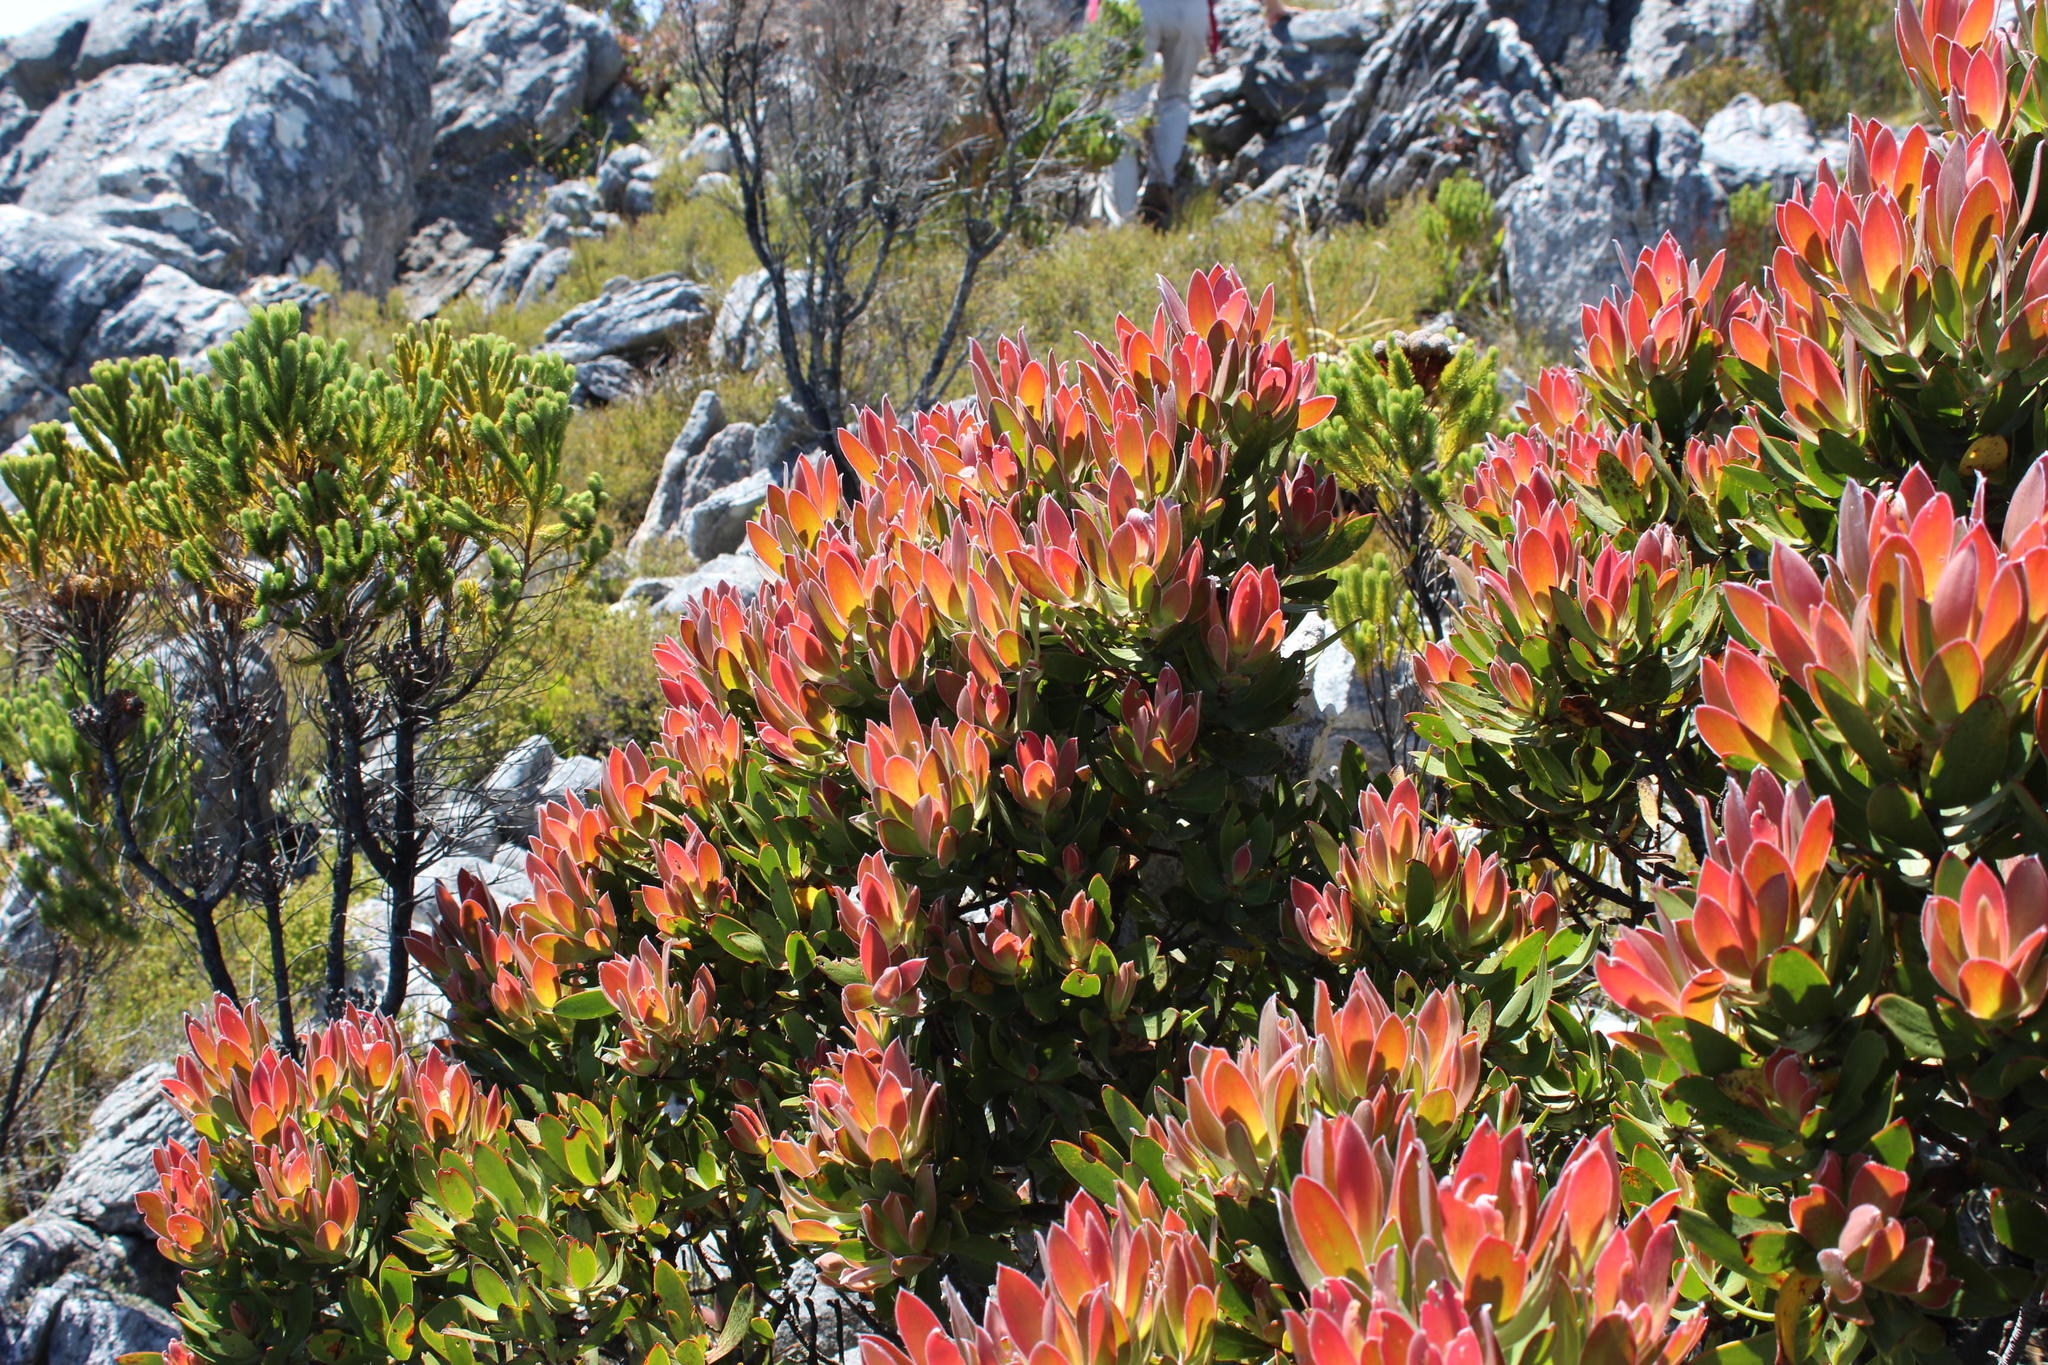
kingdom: Plantae
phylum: Tracheophyta
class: Magnoliopsida
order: Proteales
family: Proteaceae
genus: Leucadendron
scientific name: Leucadendron gandogeri
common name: Broad-leaf conebush
